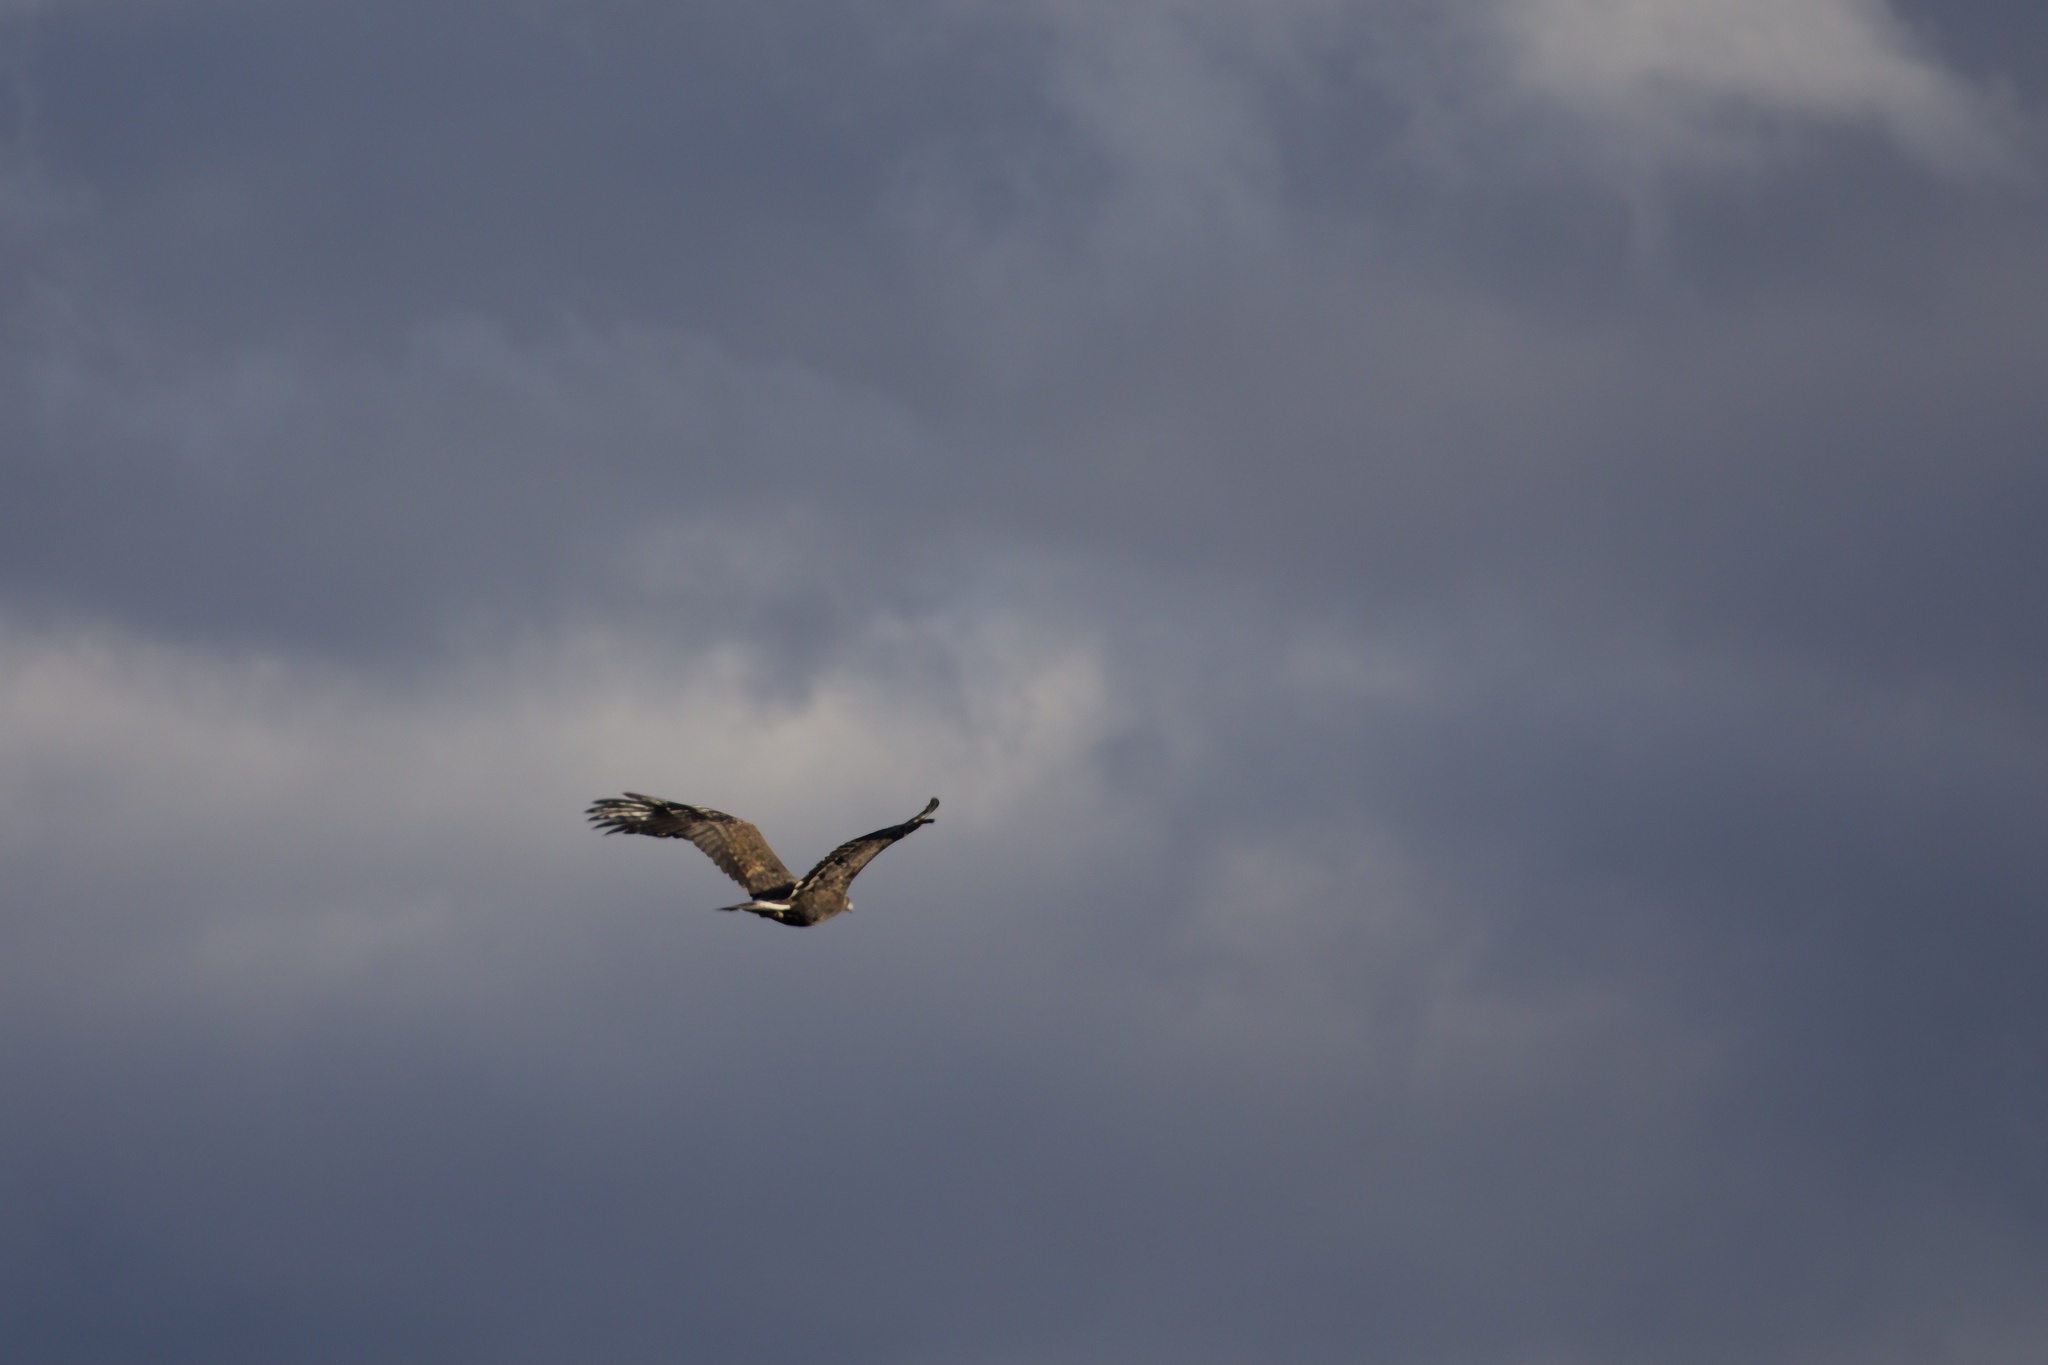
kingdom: Animalia
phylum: Chordata
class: Aves
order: Accipitriformes
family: Accipitridae
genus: Aquila
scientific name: Aquila chrysaetos
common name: Golden eagle
